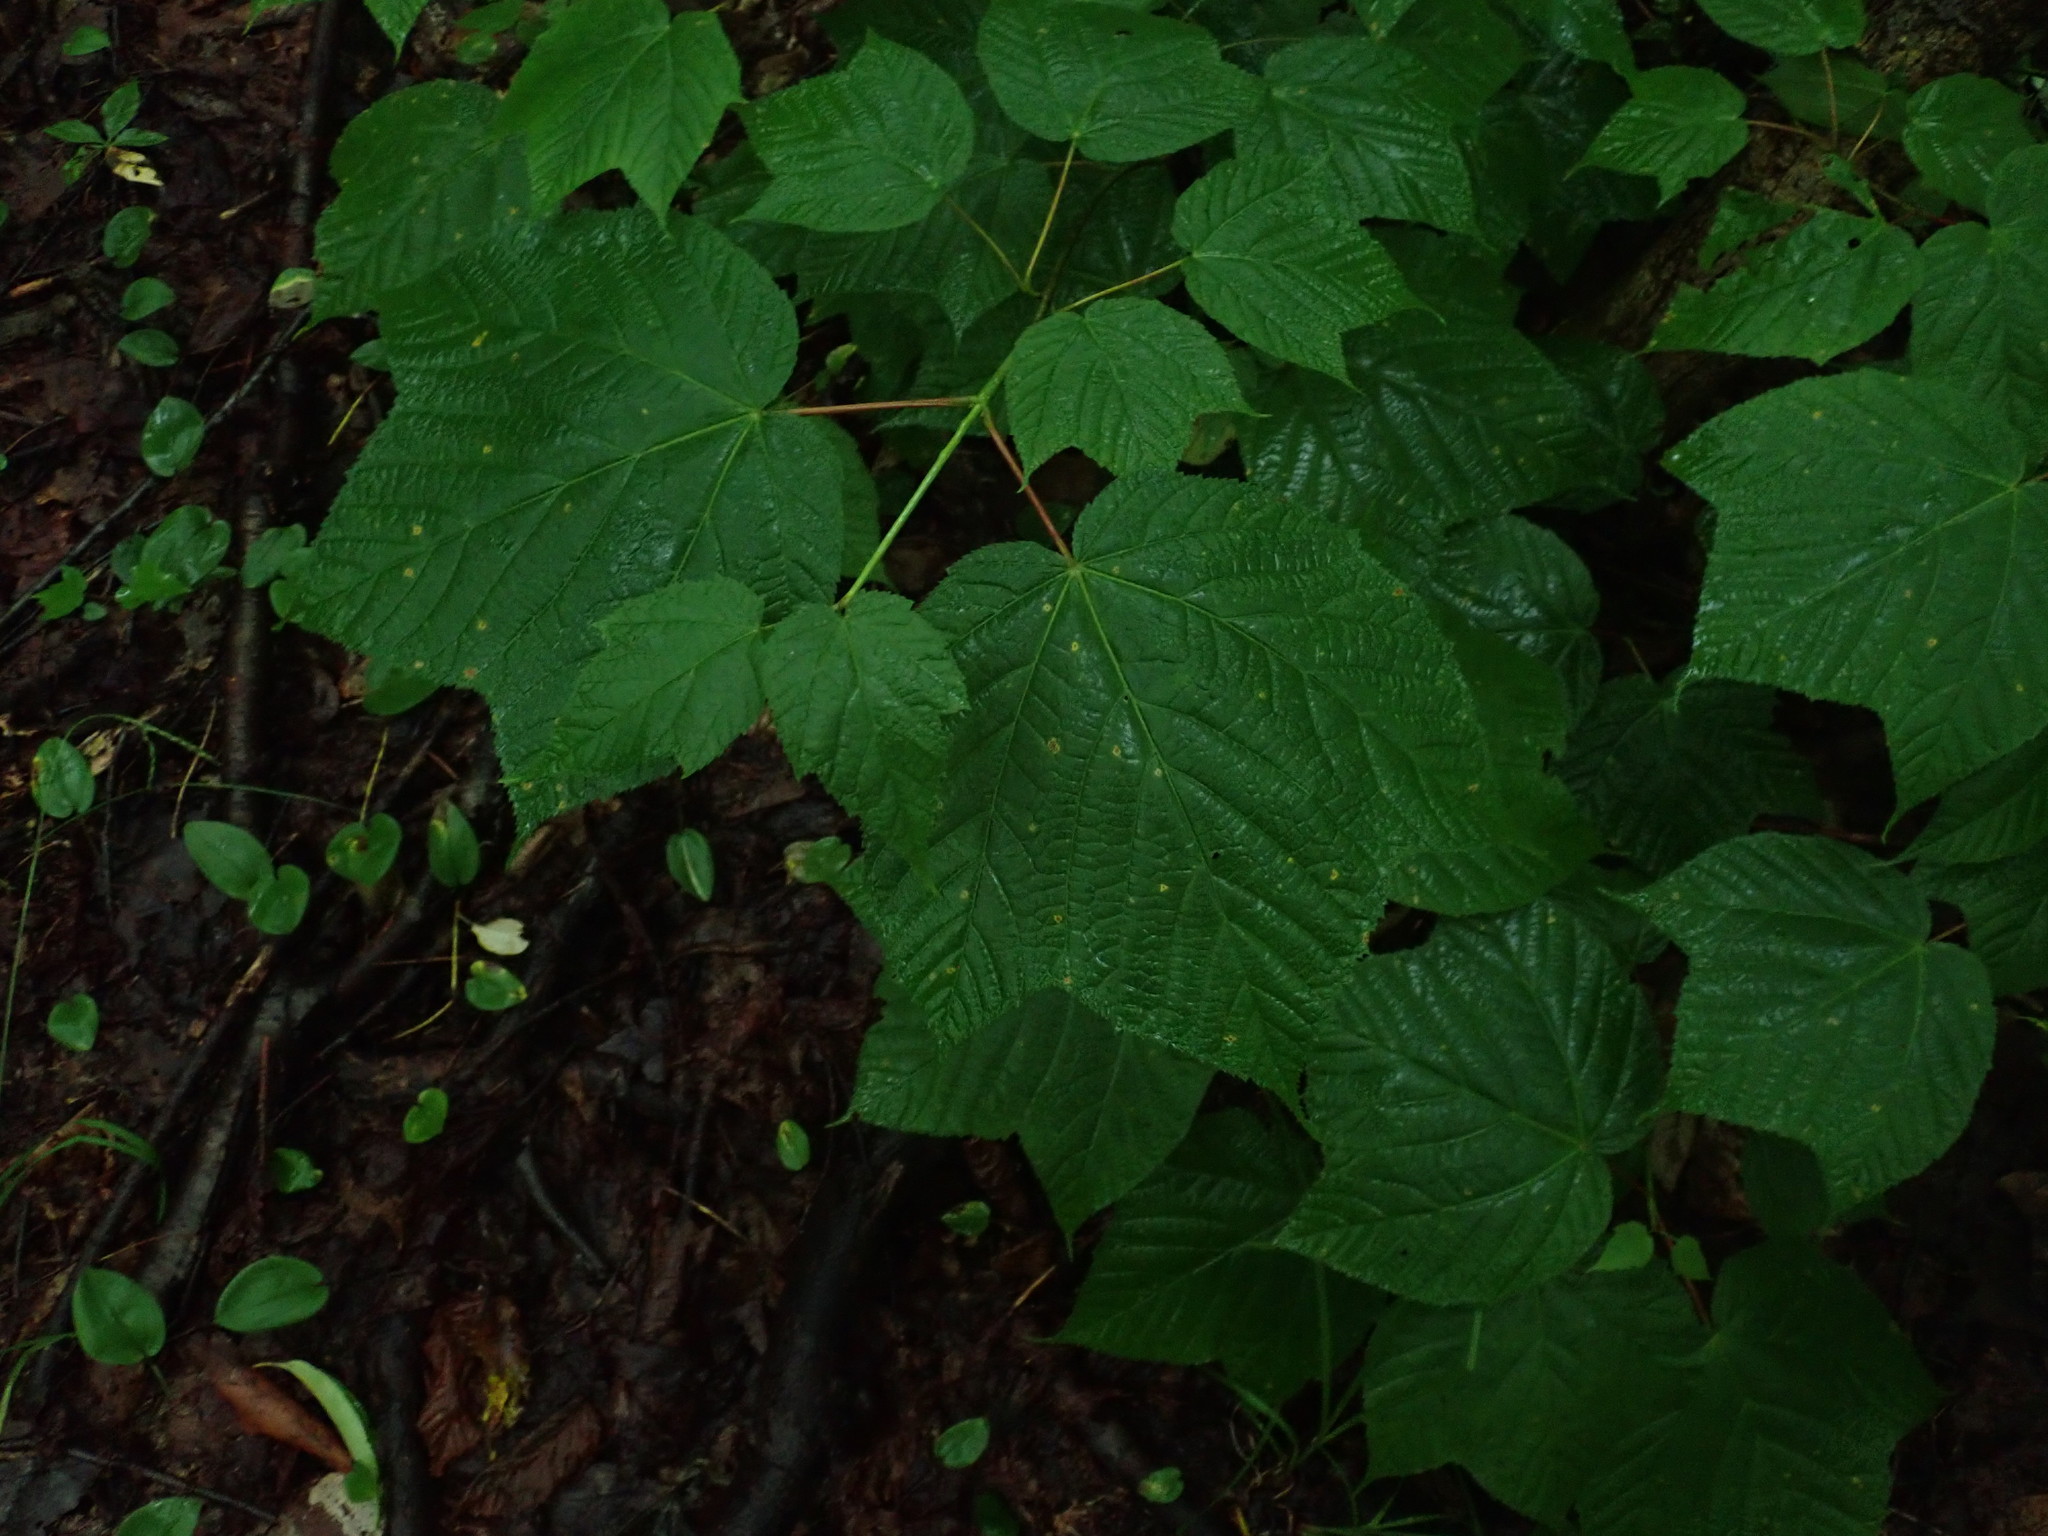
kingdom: Plantae
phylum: Tracheophyta
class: Magnoliopsida
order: Sapindales
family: Sapindaceae
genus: Acer
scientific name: Acer pensylvanicum
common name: Moosewood
